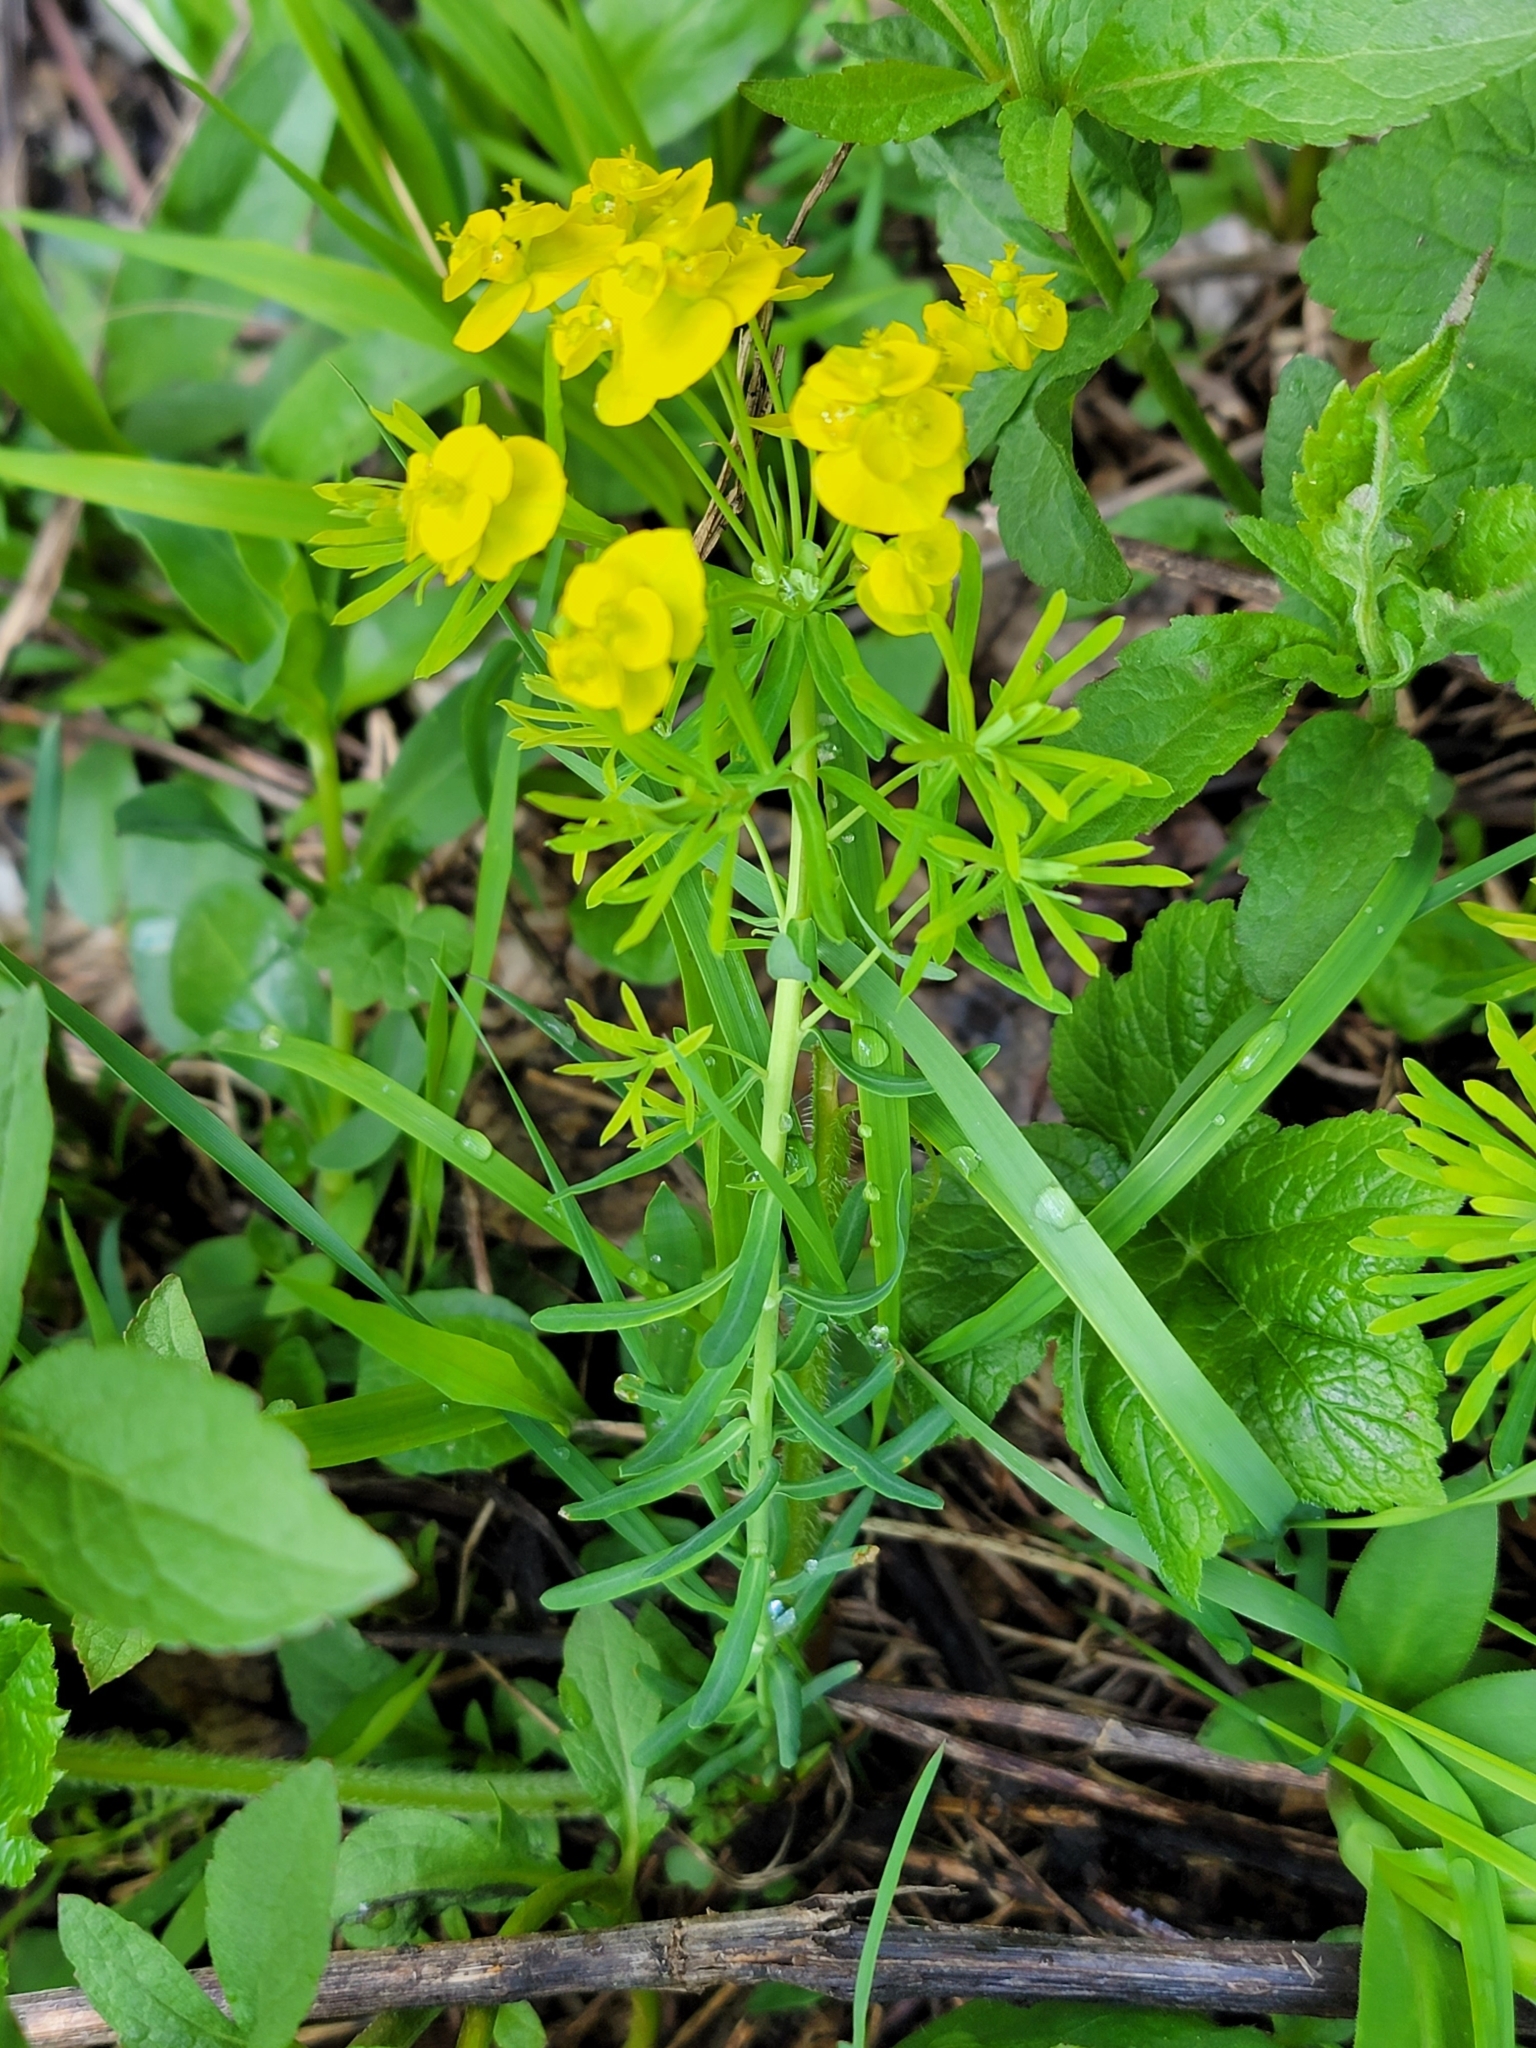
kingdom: Plantae
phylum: Tracheophyta
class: Magnoliopsida
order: Malpighiales
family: Euphorbiaceae
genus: Euphorbia
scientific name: Euphorbia cyparissias
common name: Cypress spurge
